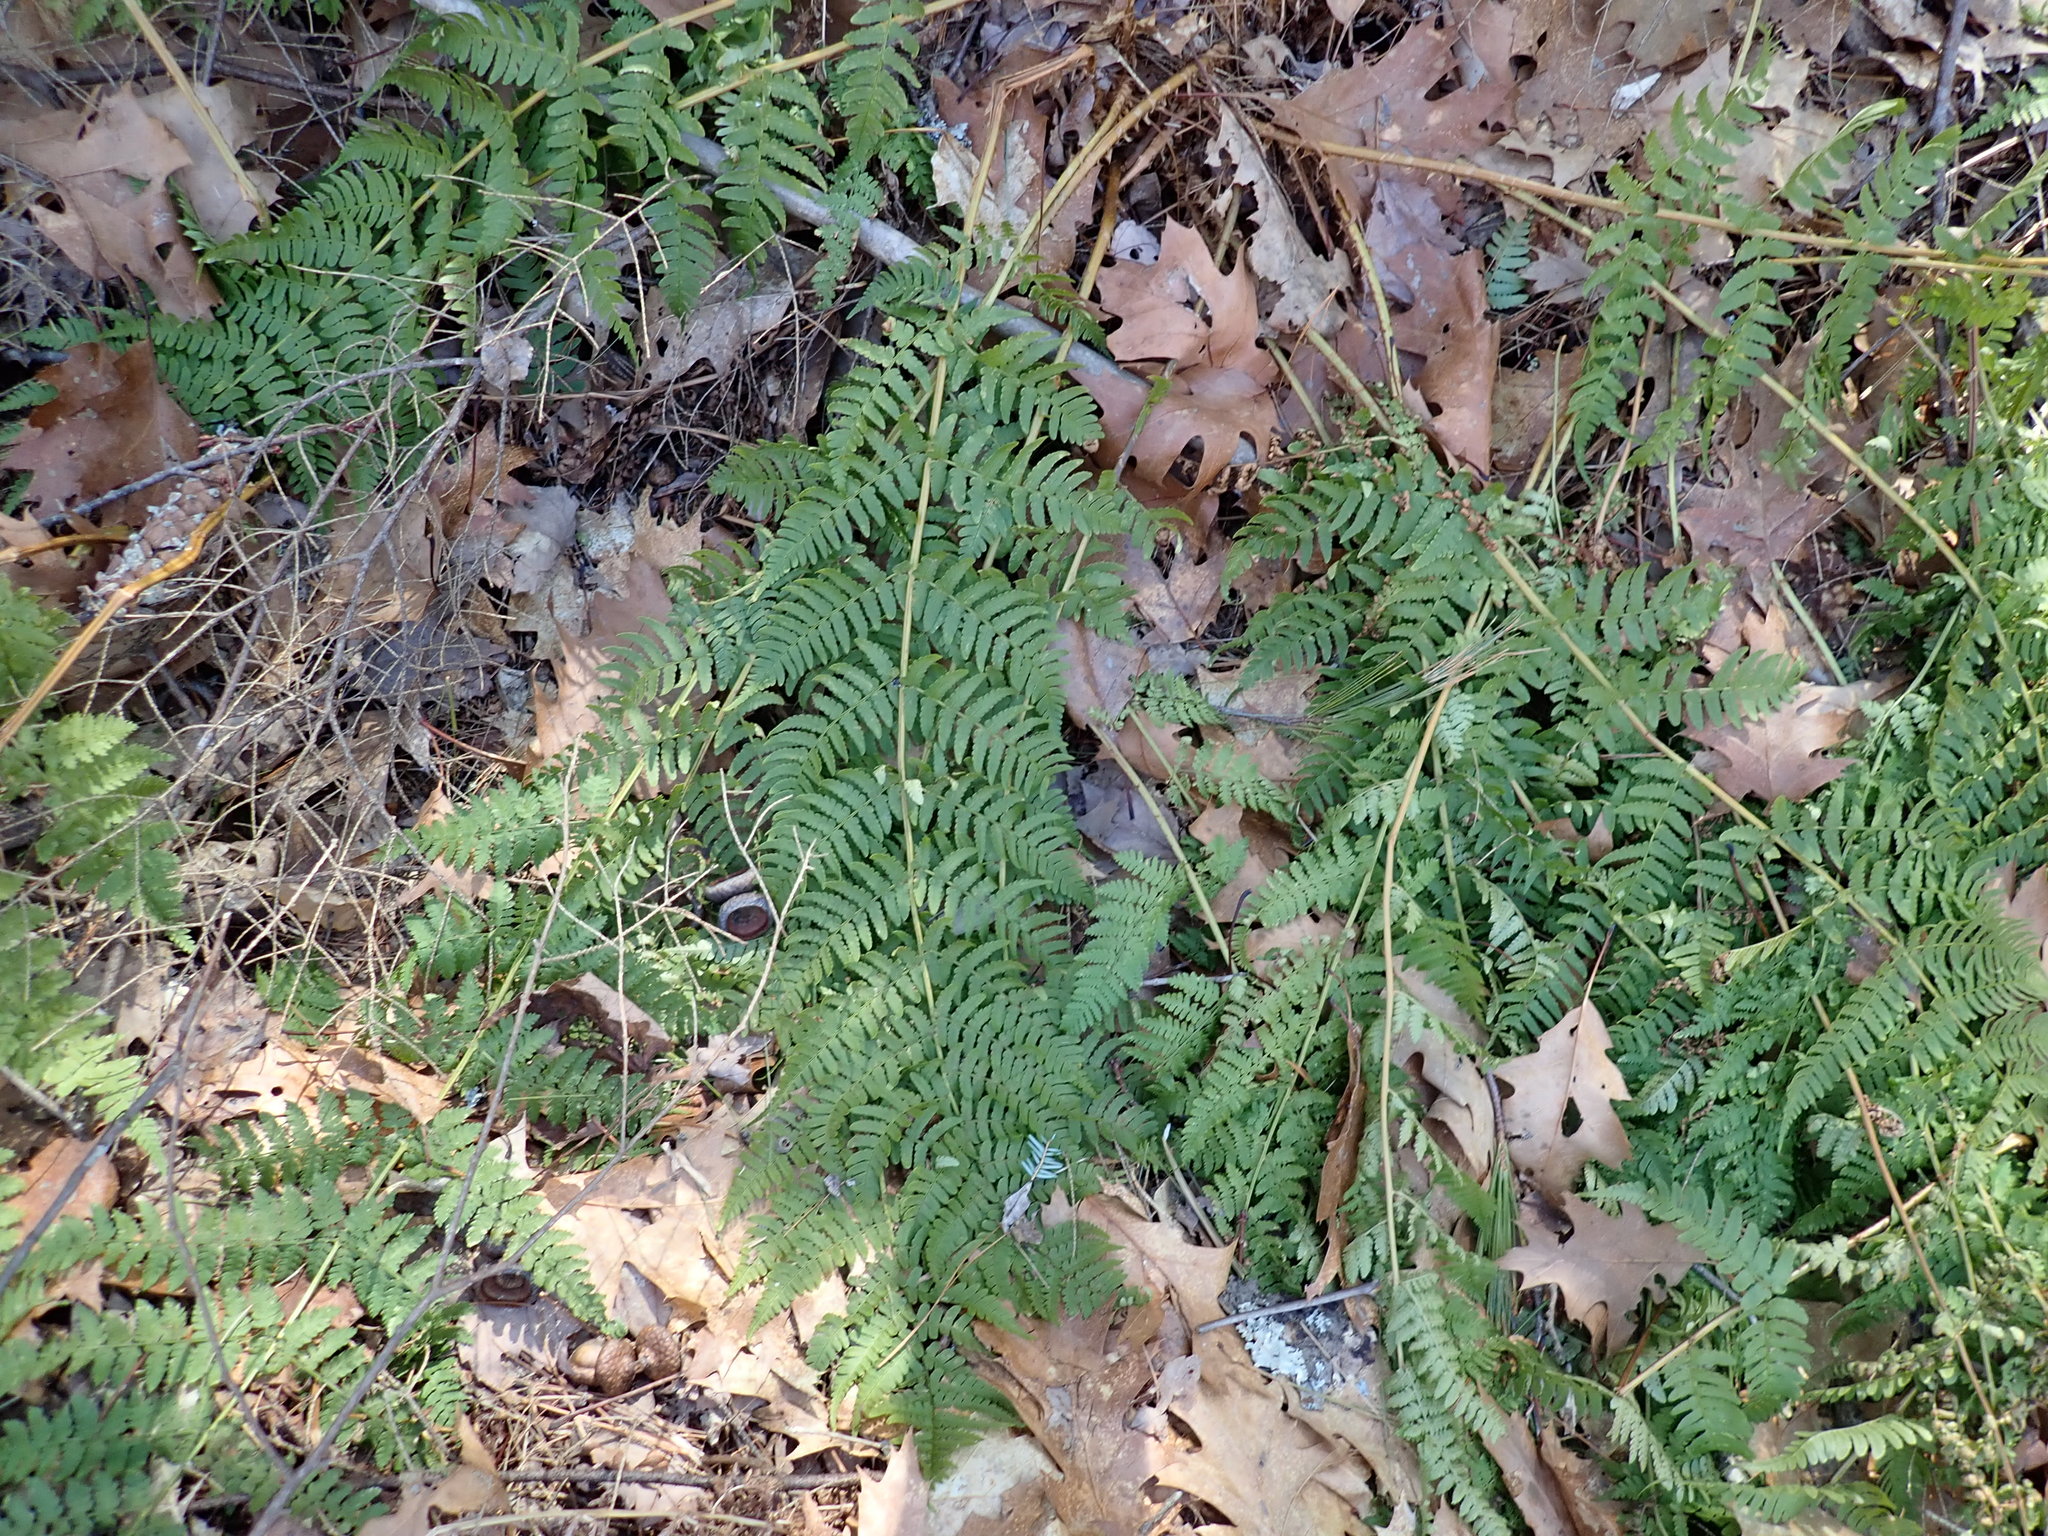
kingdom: Plantae
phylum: Tracheophyta
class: Polypodiopsida
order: Polypodiales
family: Dryopteridaceae
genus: Dryopteris
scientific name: Dryopteris marginalis
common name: Marginal wood fern
